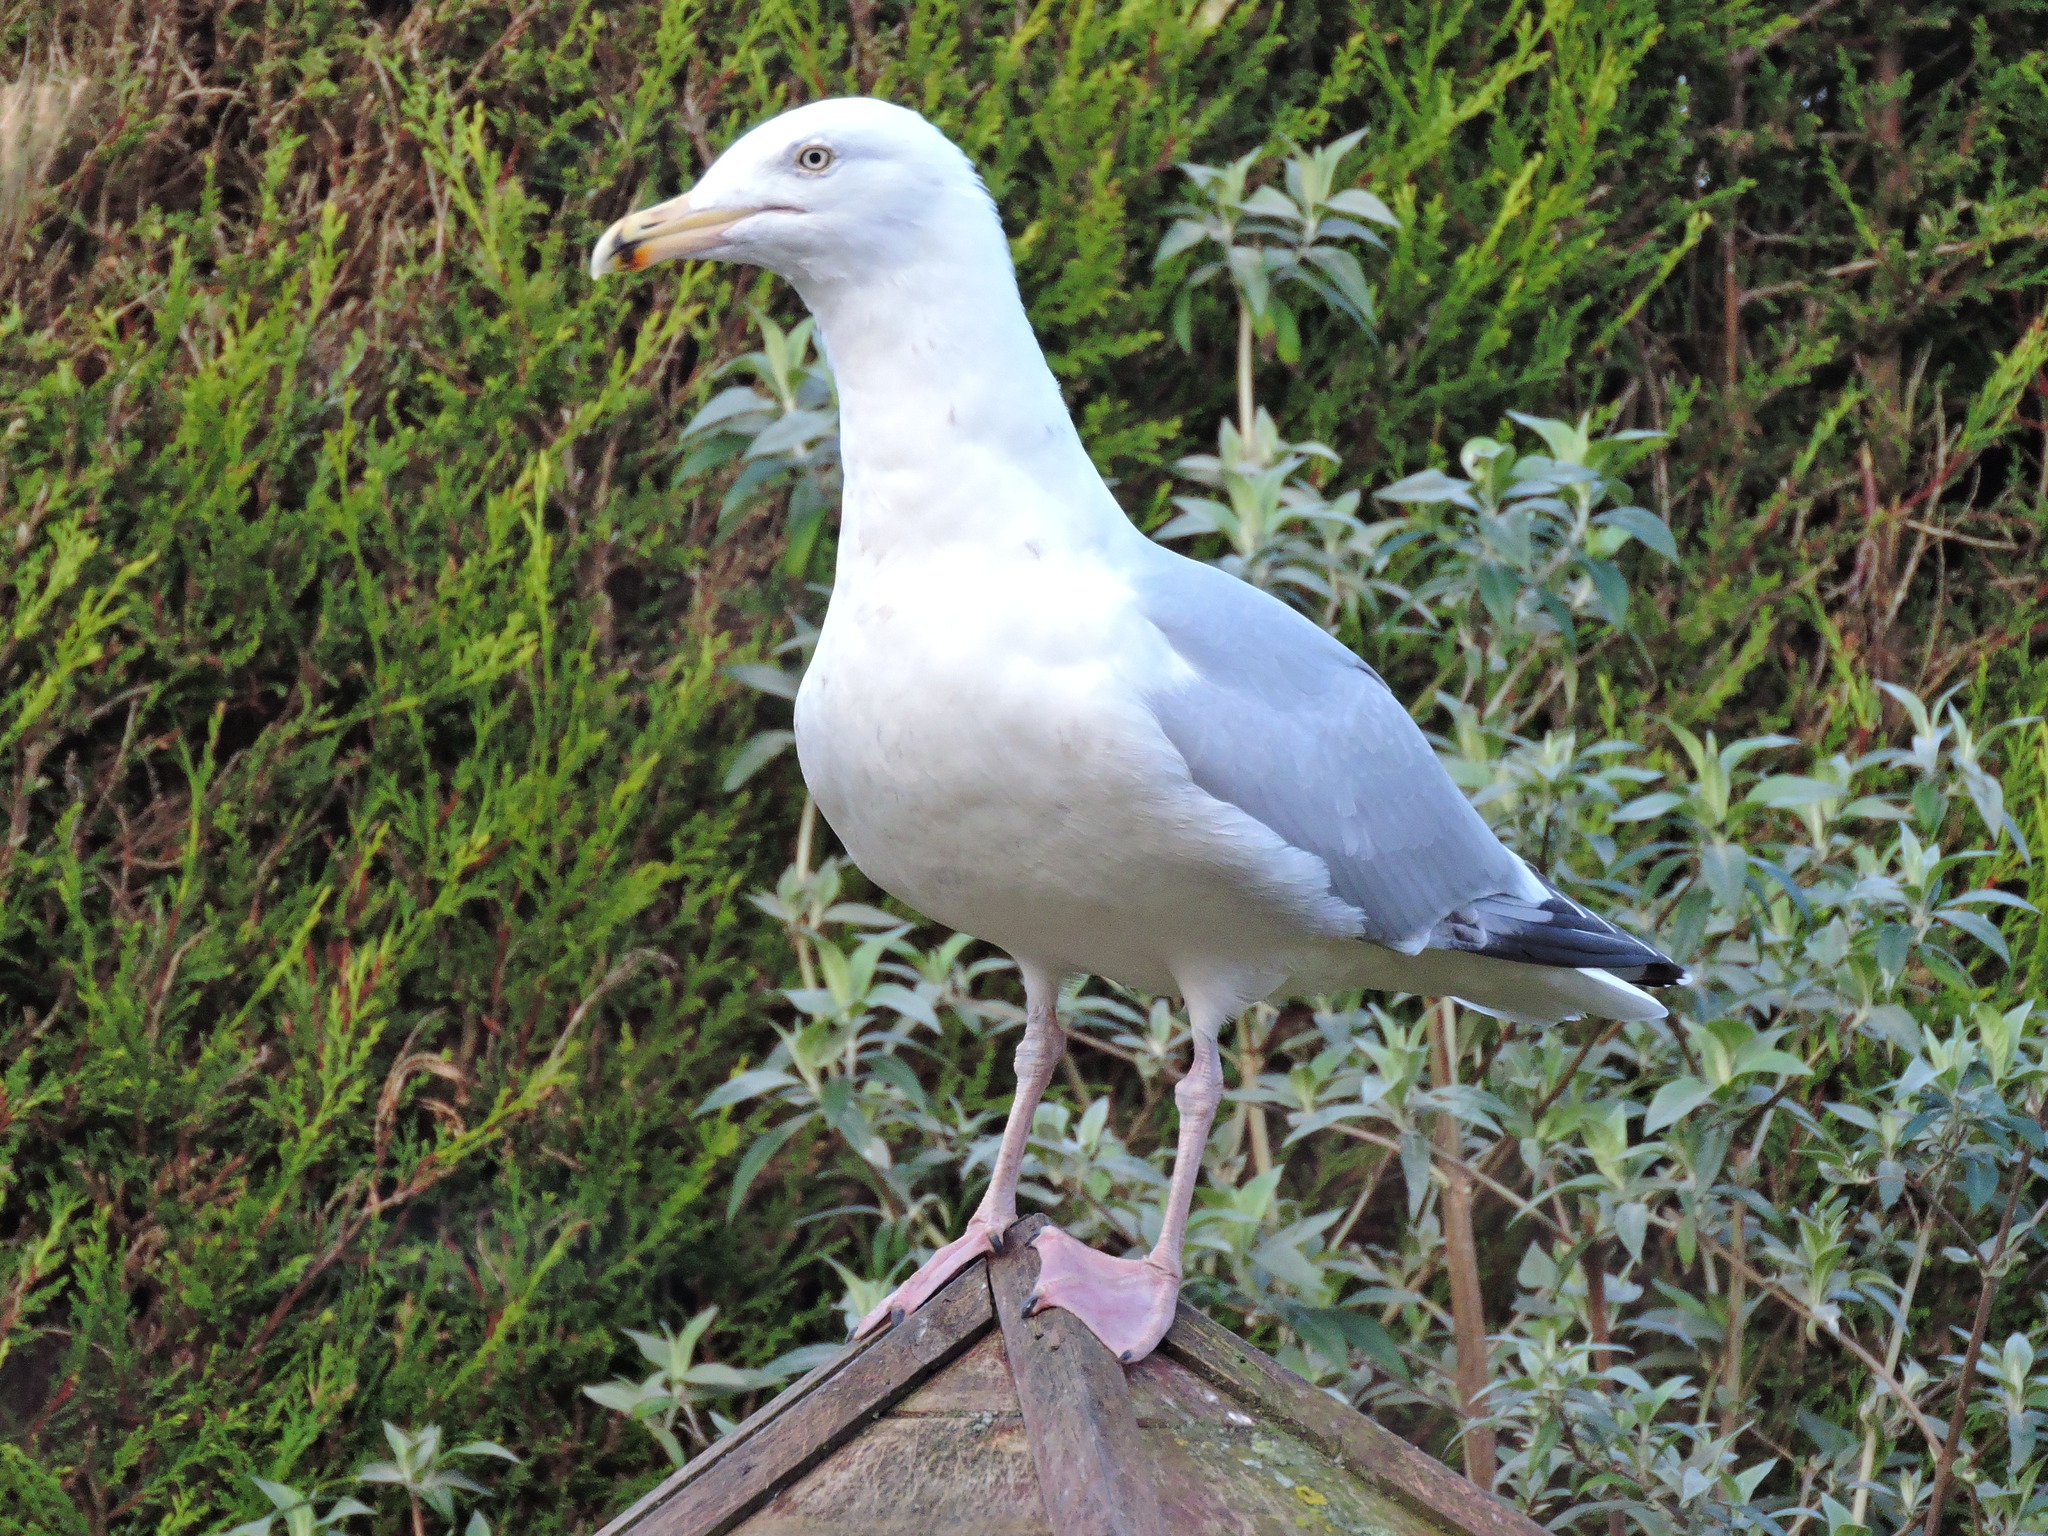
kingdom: Animalia
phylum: Chordata
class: Aves
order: Charadriiformes
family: Laridae
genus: Larus
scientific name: Larus argentatus
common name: Herring gull
